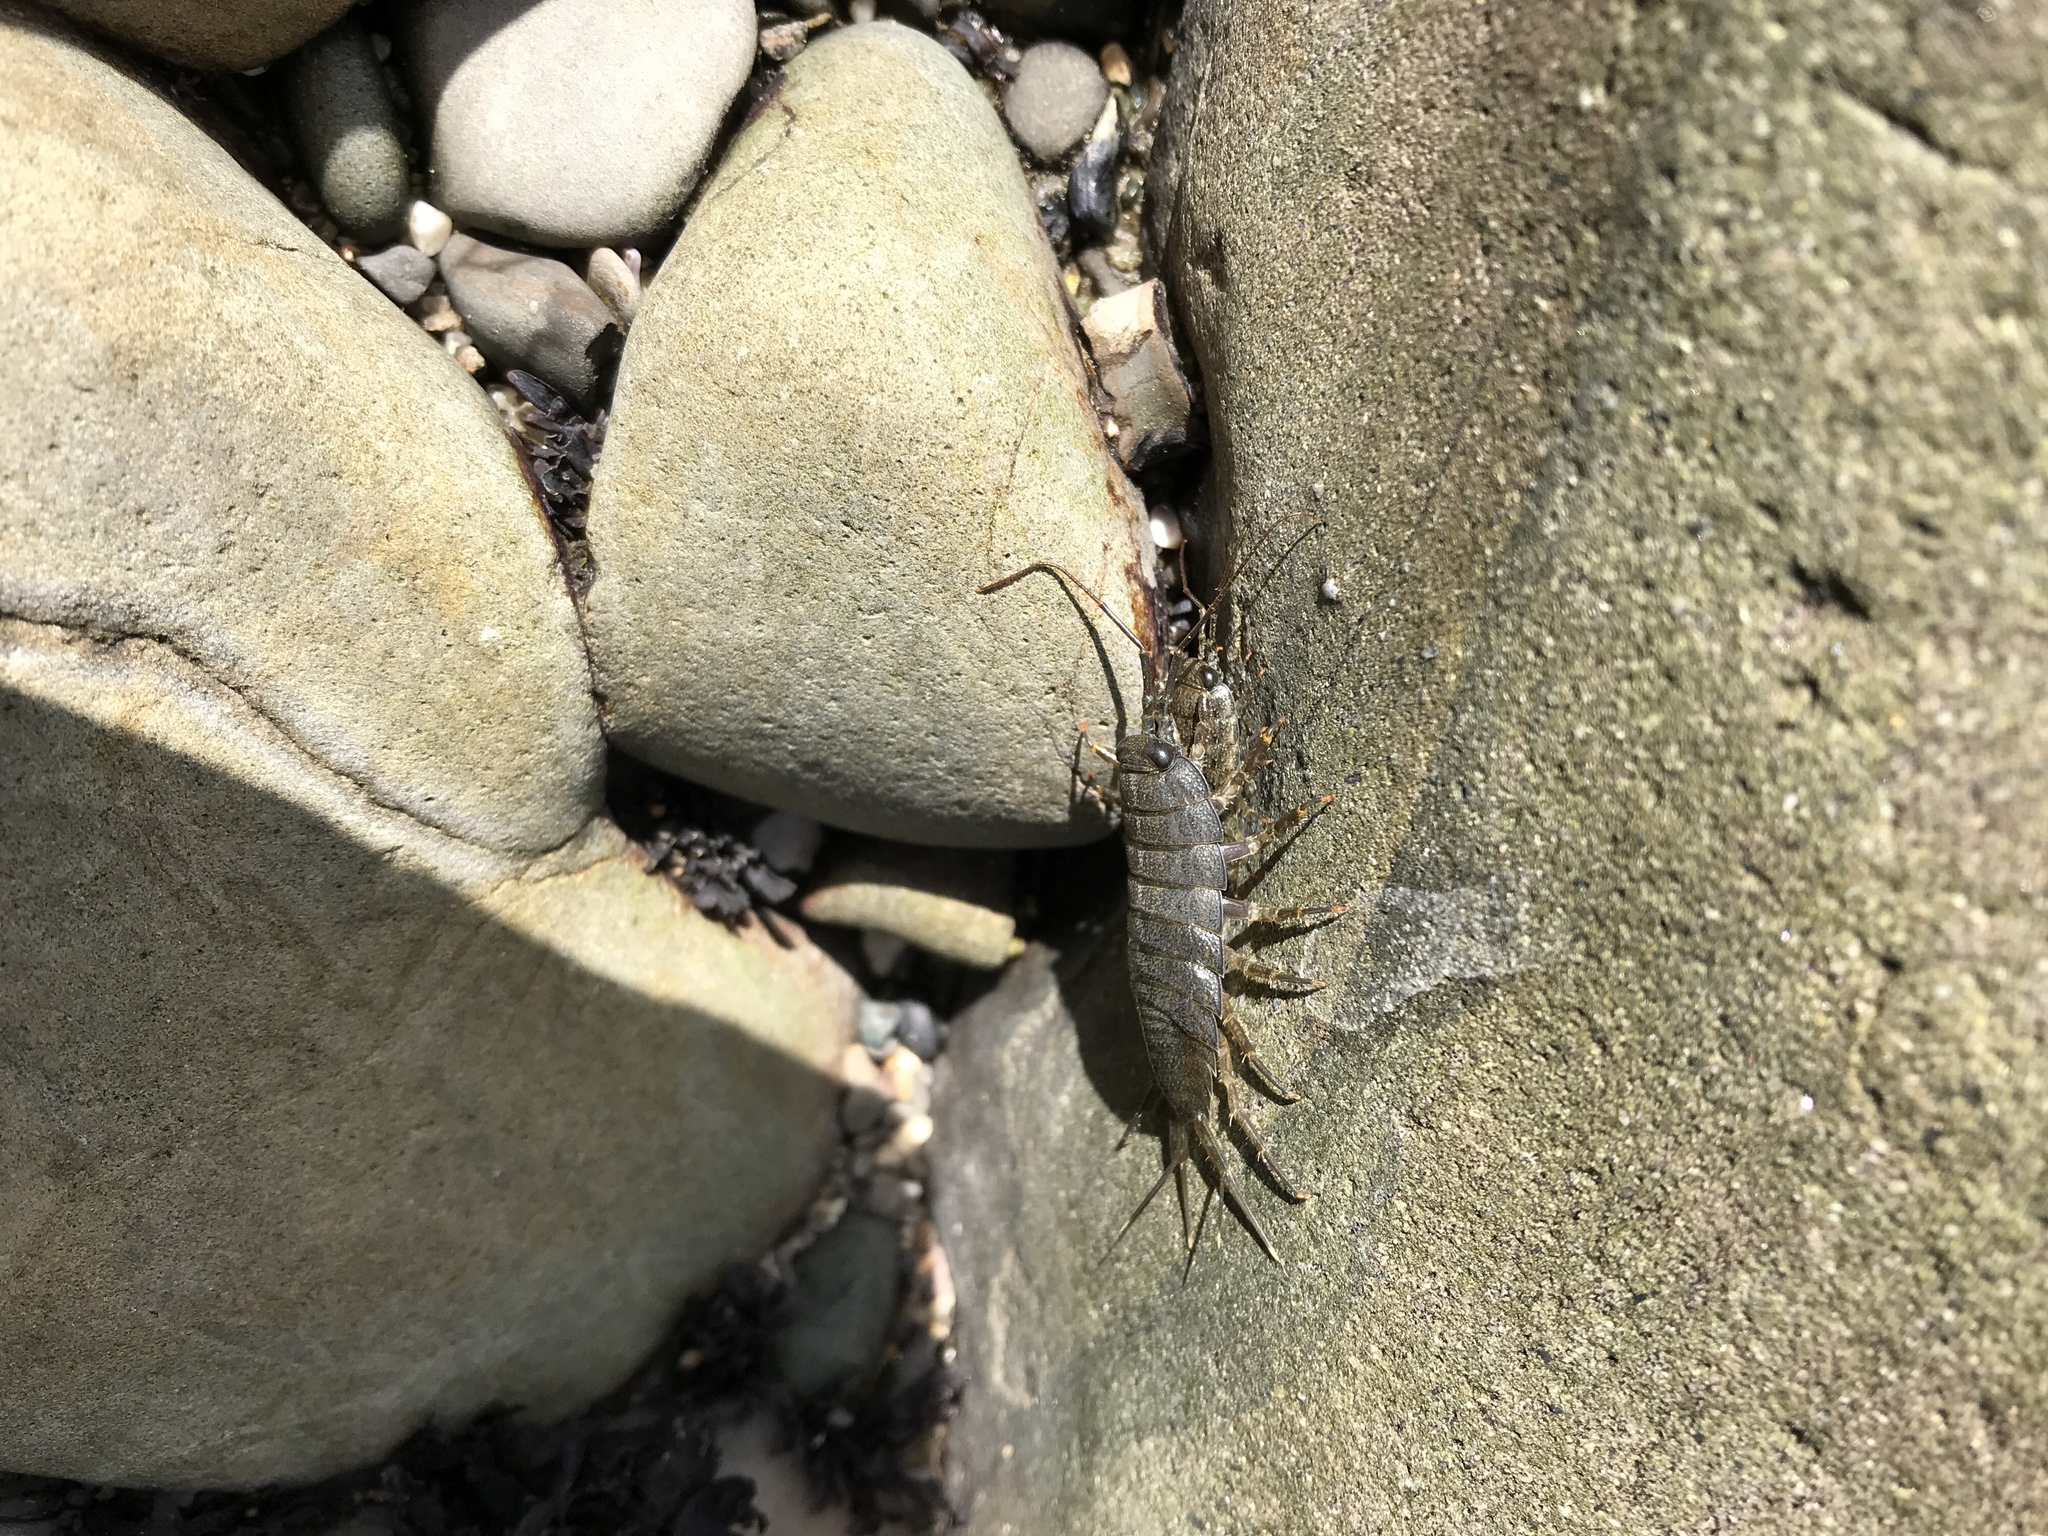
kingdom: Animalia
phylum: Arthropoda
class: Malacostraca
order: Isopoda
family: Ligiidae
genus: Ligia
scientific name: Ligia occidentalis
